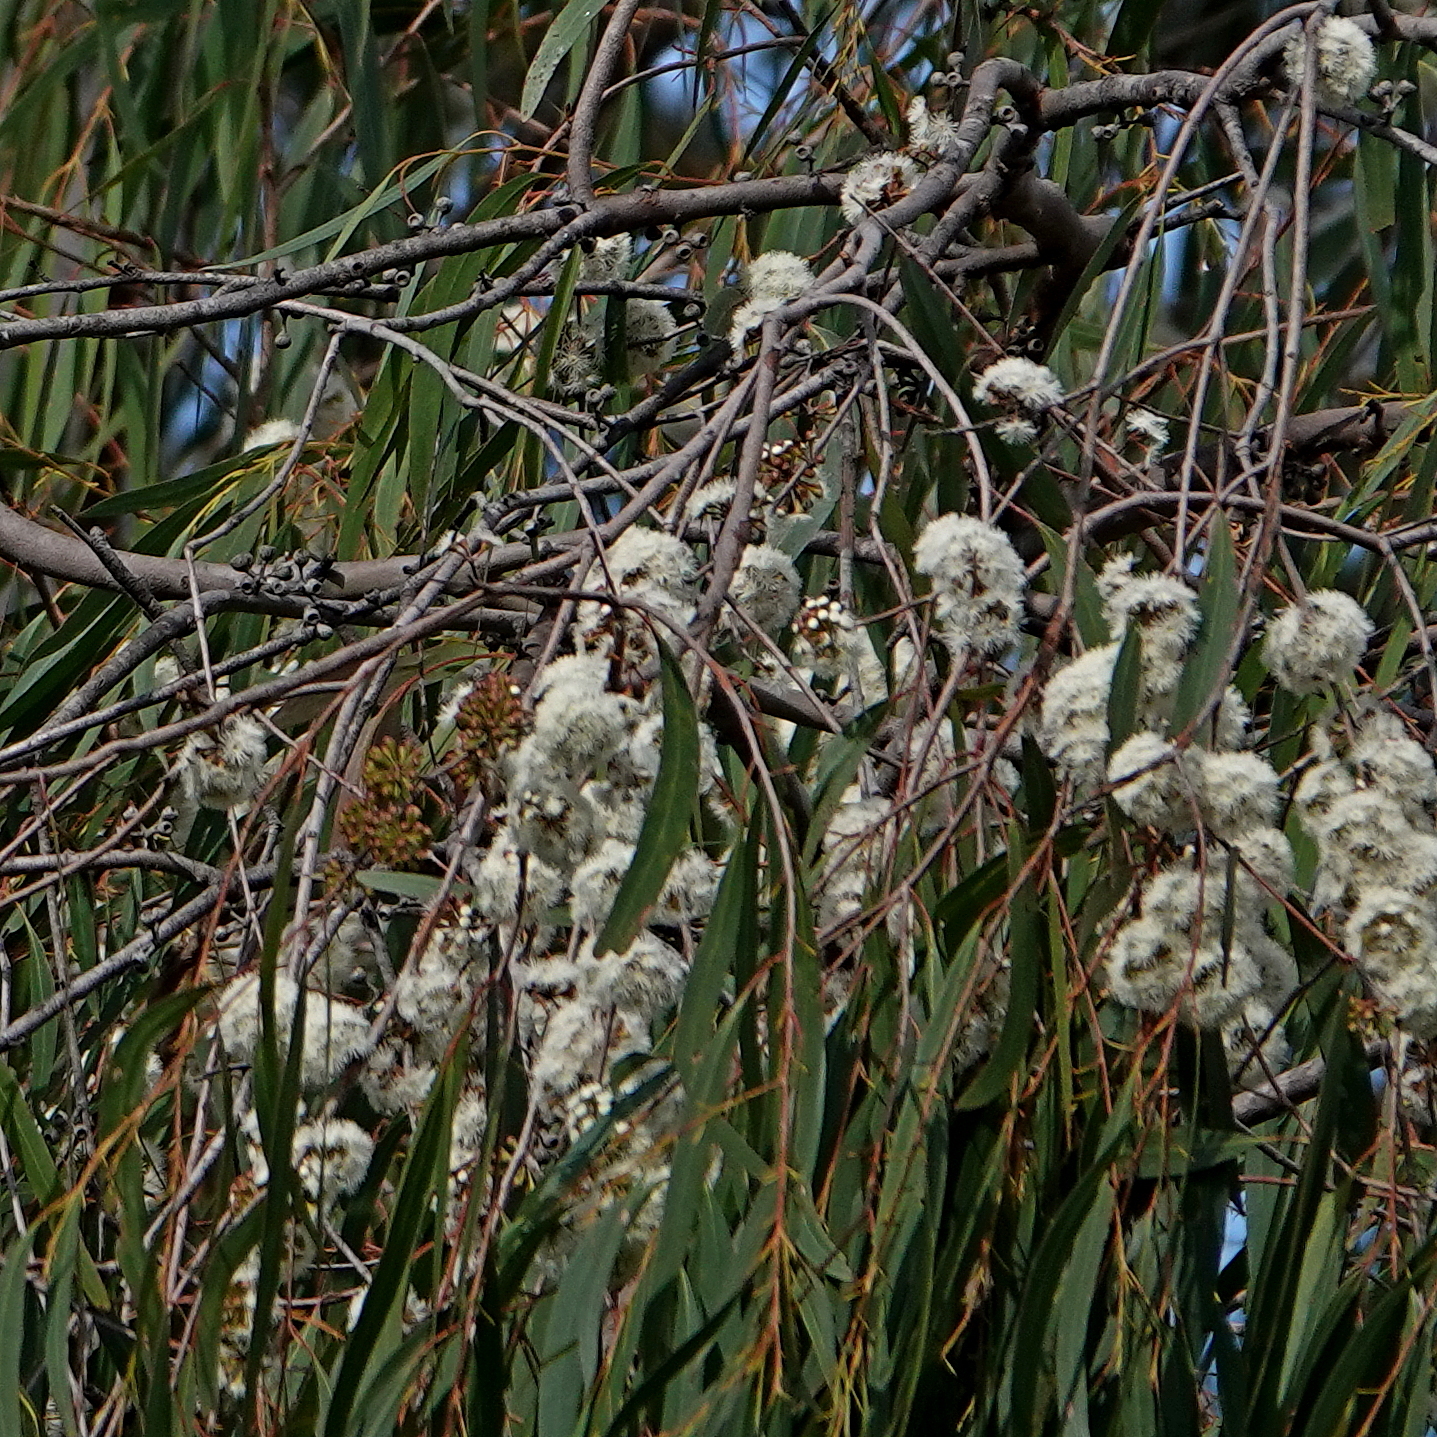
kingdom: Plantae
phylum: Tracheophyta
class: Magnoliopsida
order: Myrtales
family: Myrtaceae
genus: Eucalyptus
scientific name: Eucalyptus elata
